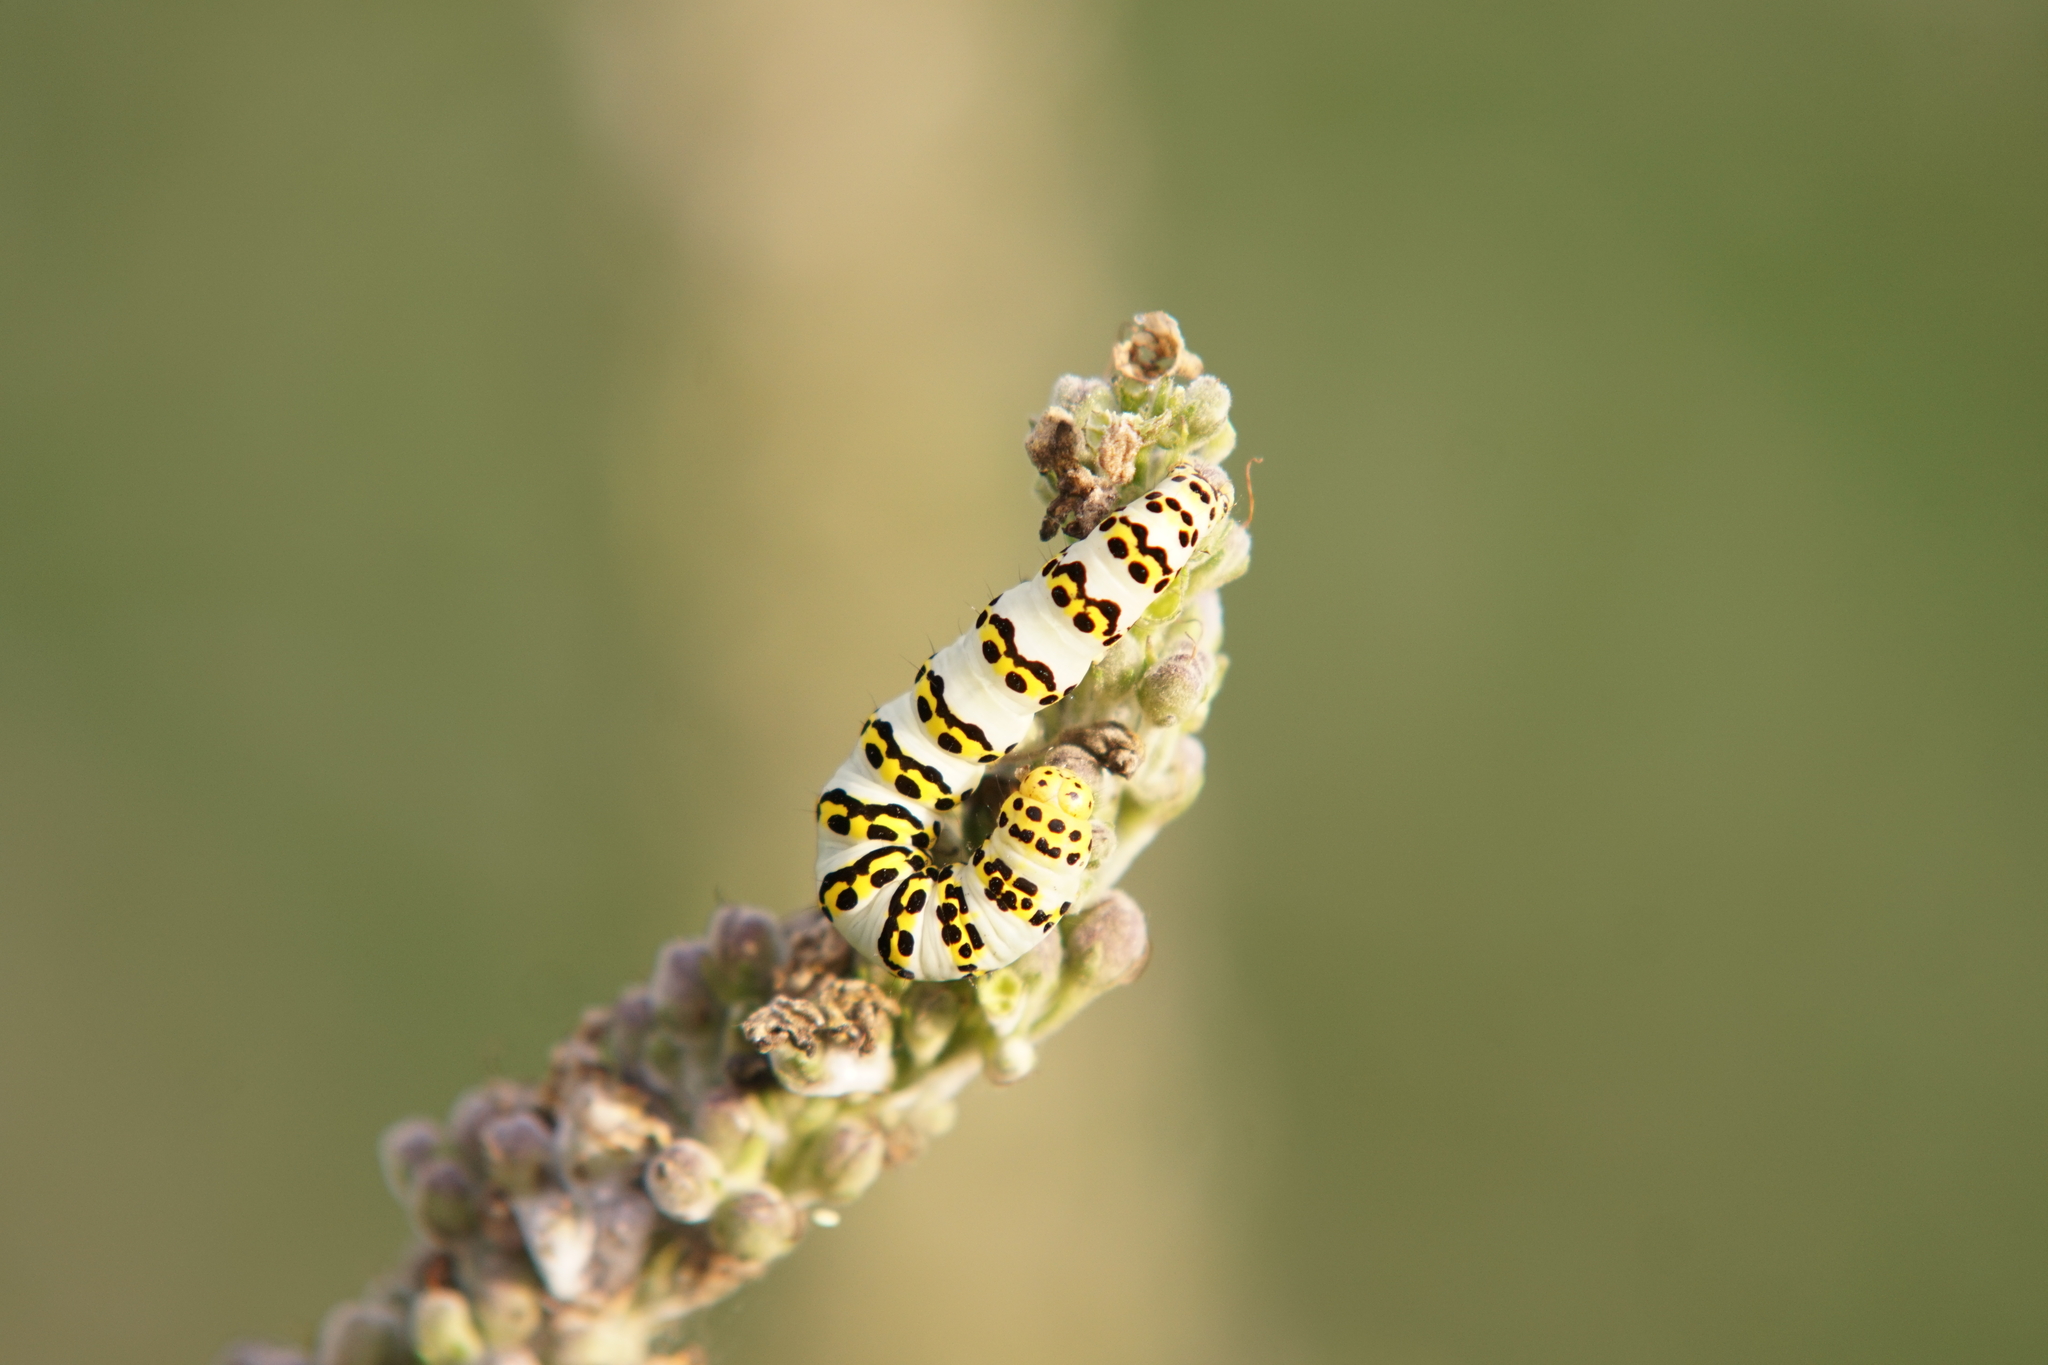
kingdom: Animalia
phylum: Arthropoda
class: Insecta
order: Lepidoptera
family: Noctuidae
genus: Cucullia
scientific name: Cucullia lychnitis
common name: Striped lychnis
